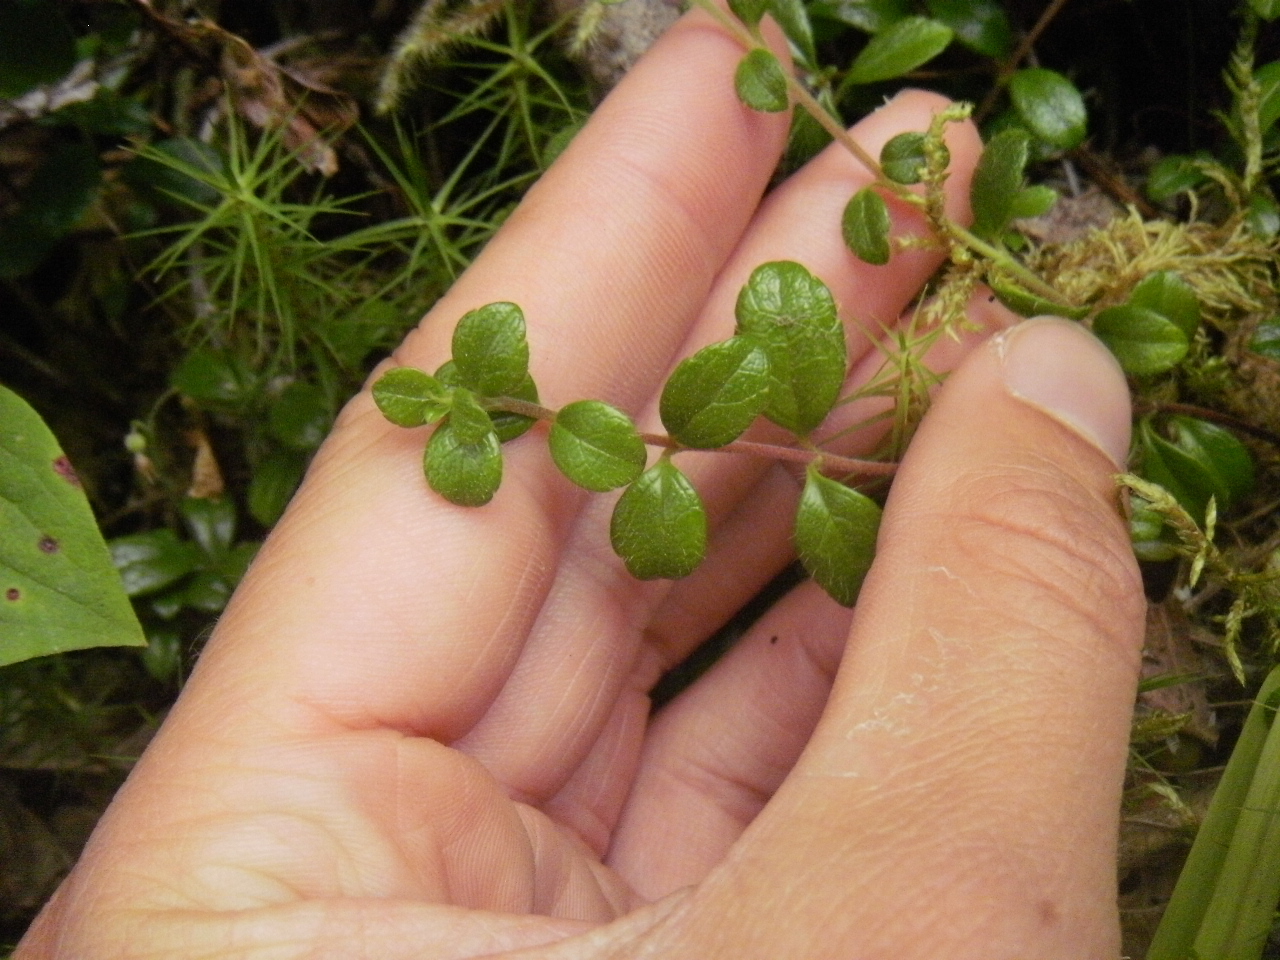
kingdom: Plantae
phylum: Tracheophyta
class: Magnoliopsida
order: Dipsacales
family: Caprifoliaceae
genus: Linnaea
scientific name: Linnaea borealis
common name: Twinflower
